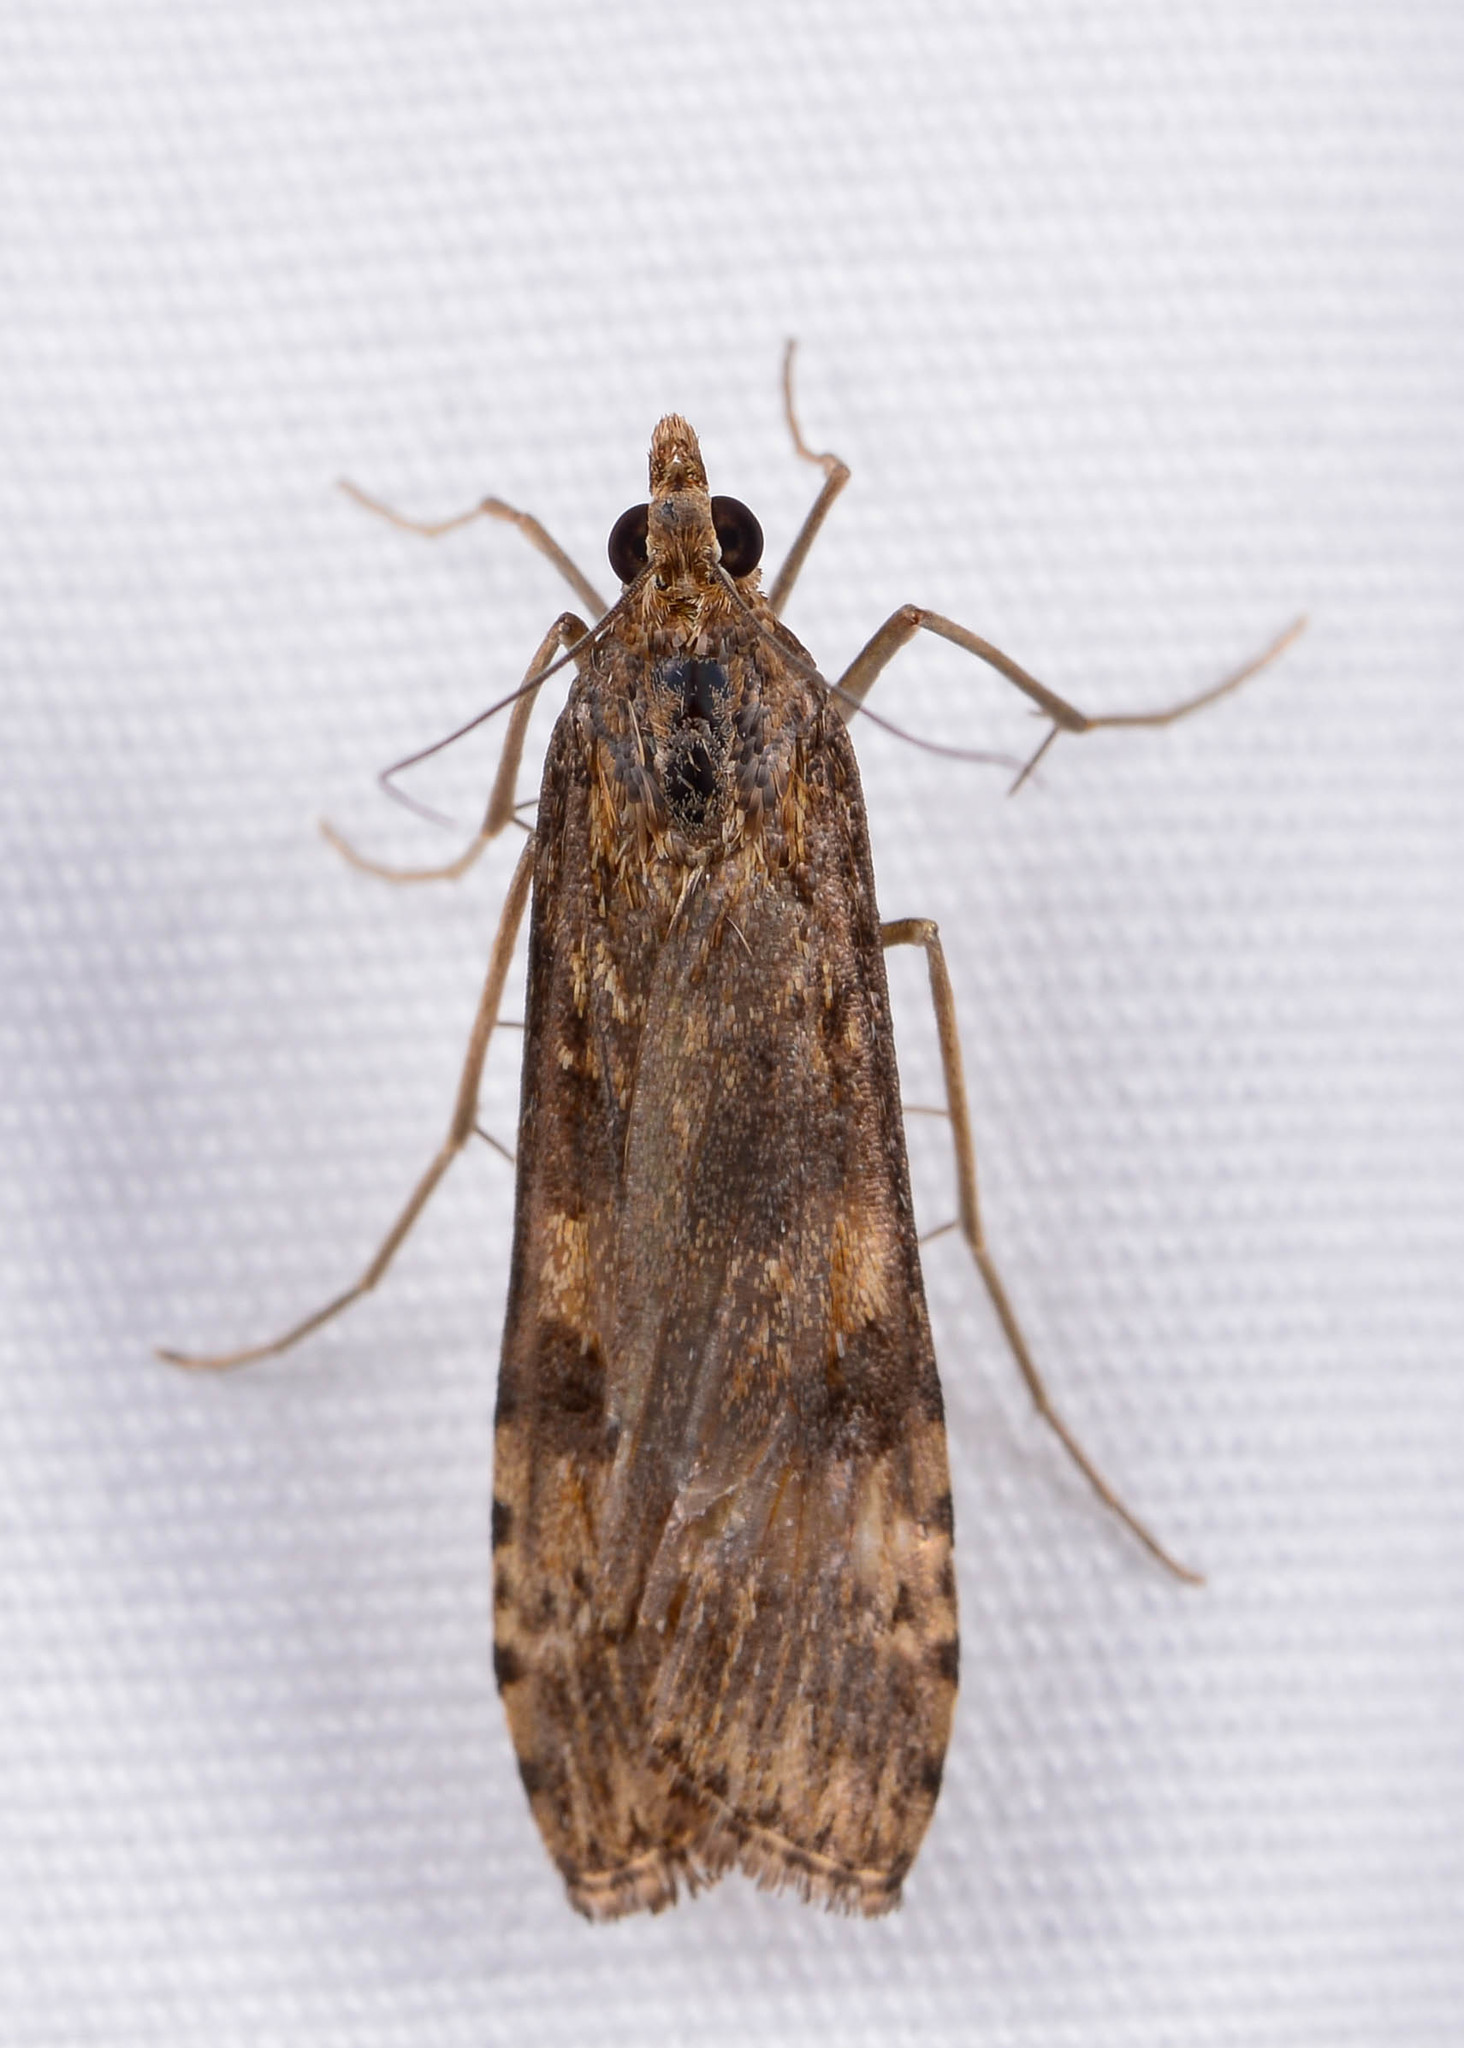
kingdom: Animalia
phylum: Arthropoda
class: Insecta
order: Lepidoptera
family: Crambidae
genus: Nomophila
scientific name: Nomophila nearctica
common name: American rush veneer
